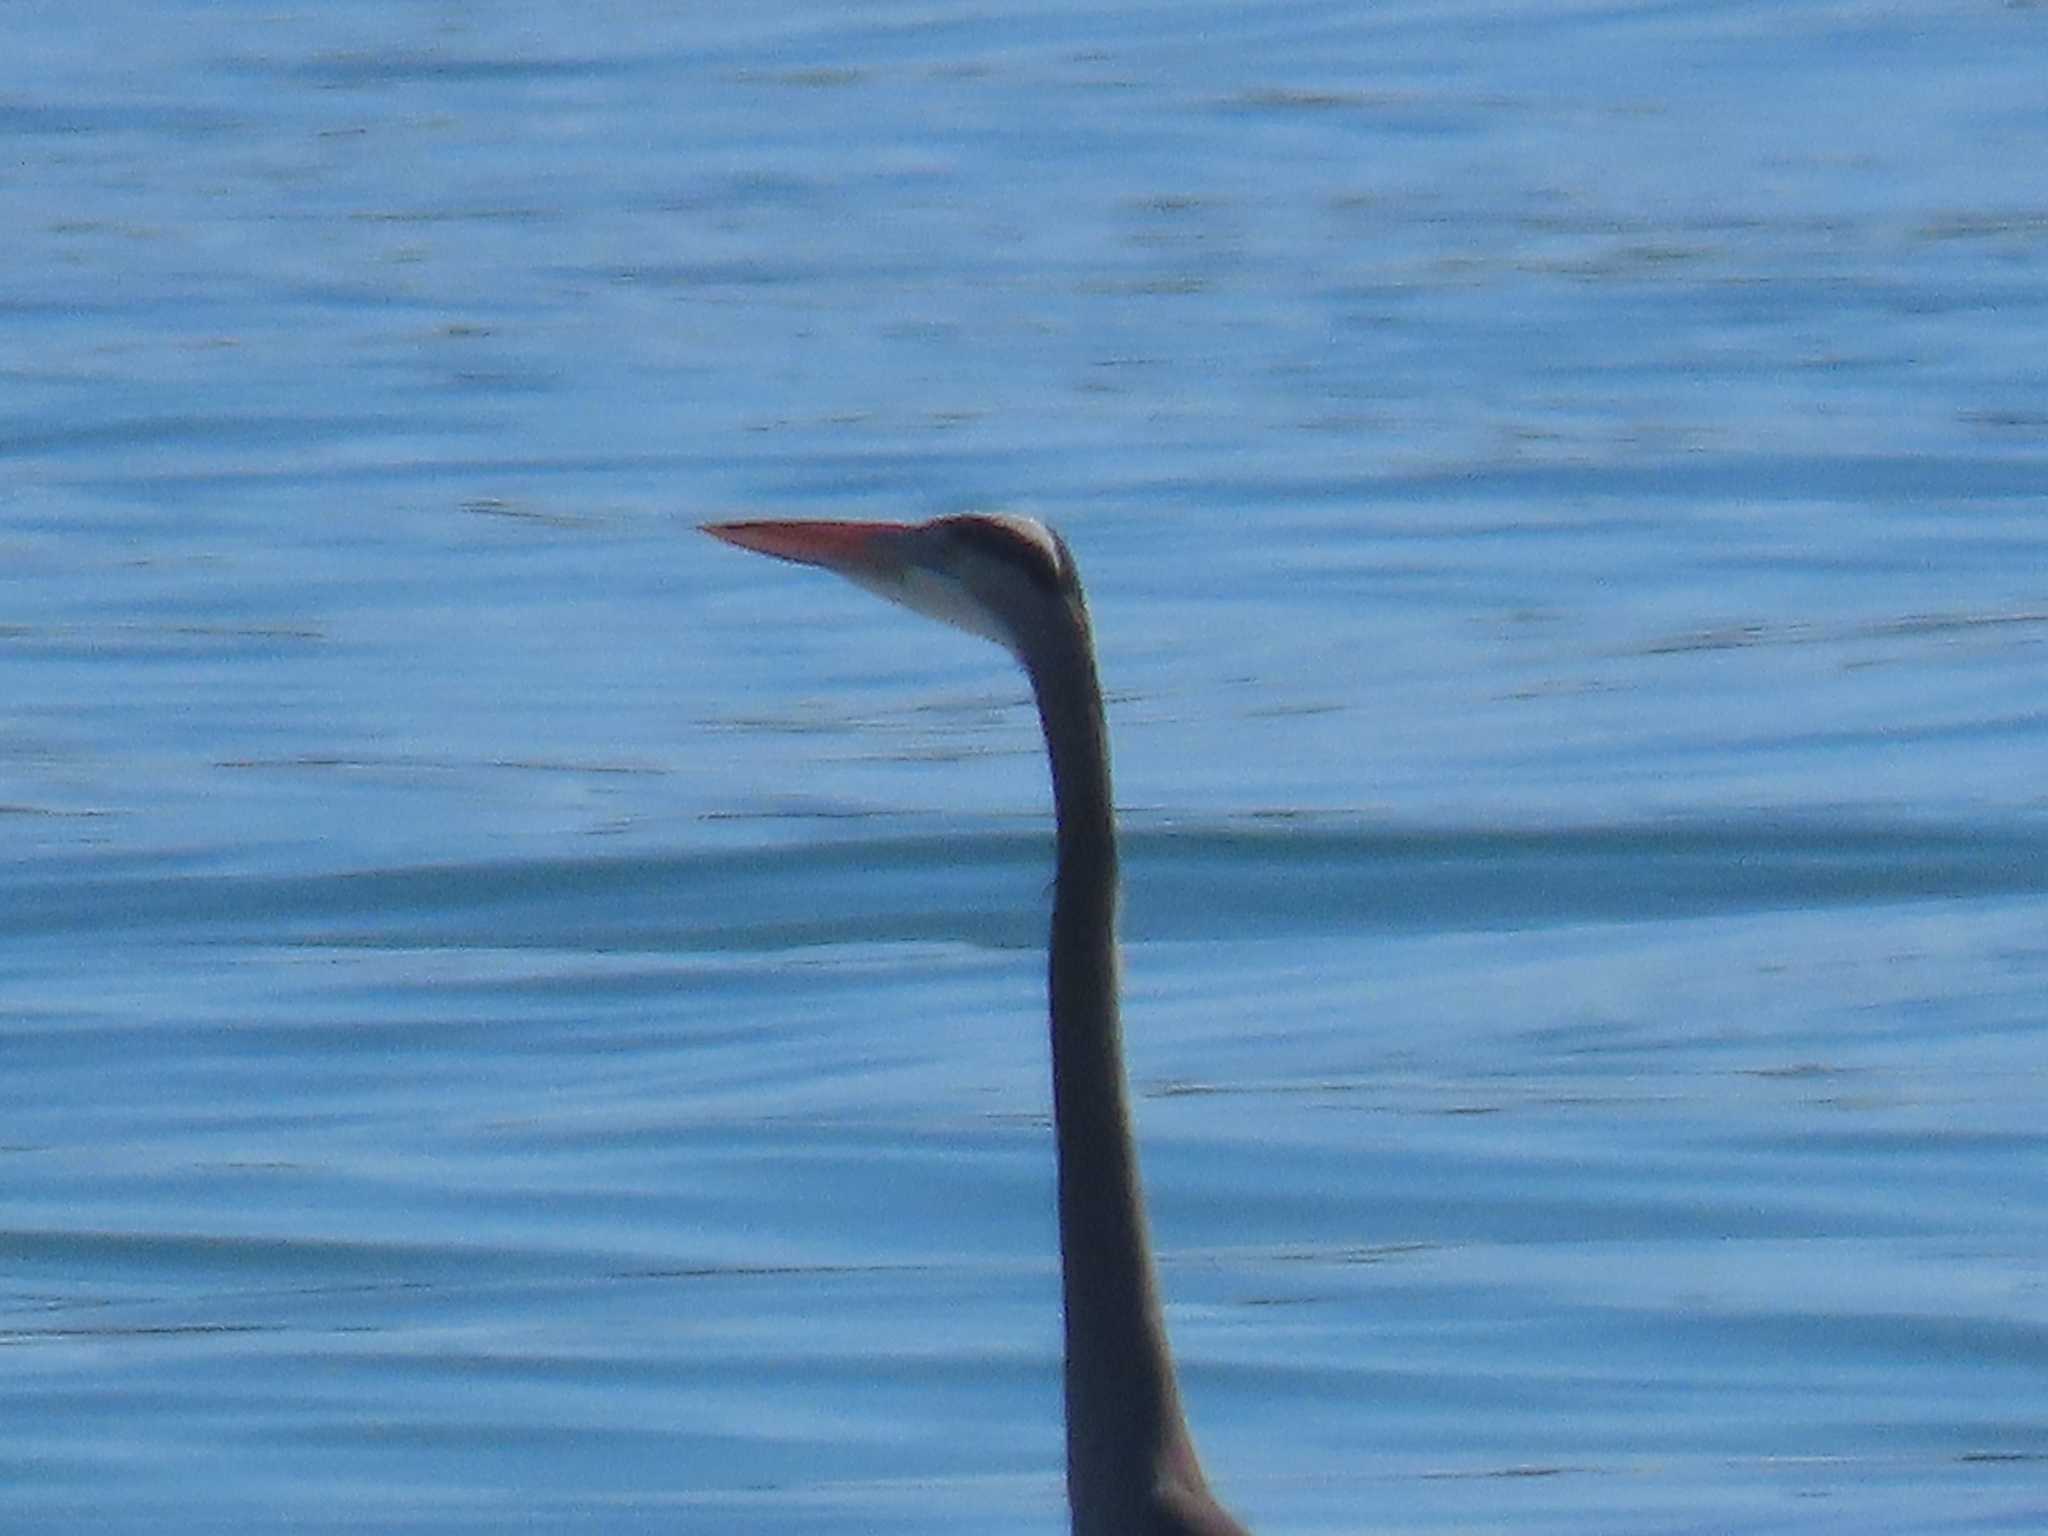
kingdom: Animalia
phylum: Chordata
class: Aves
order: Pelecaniformes
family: Ardeidae
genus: Ardea
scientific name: Ardea herodias
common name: Great blue heron
